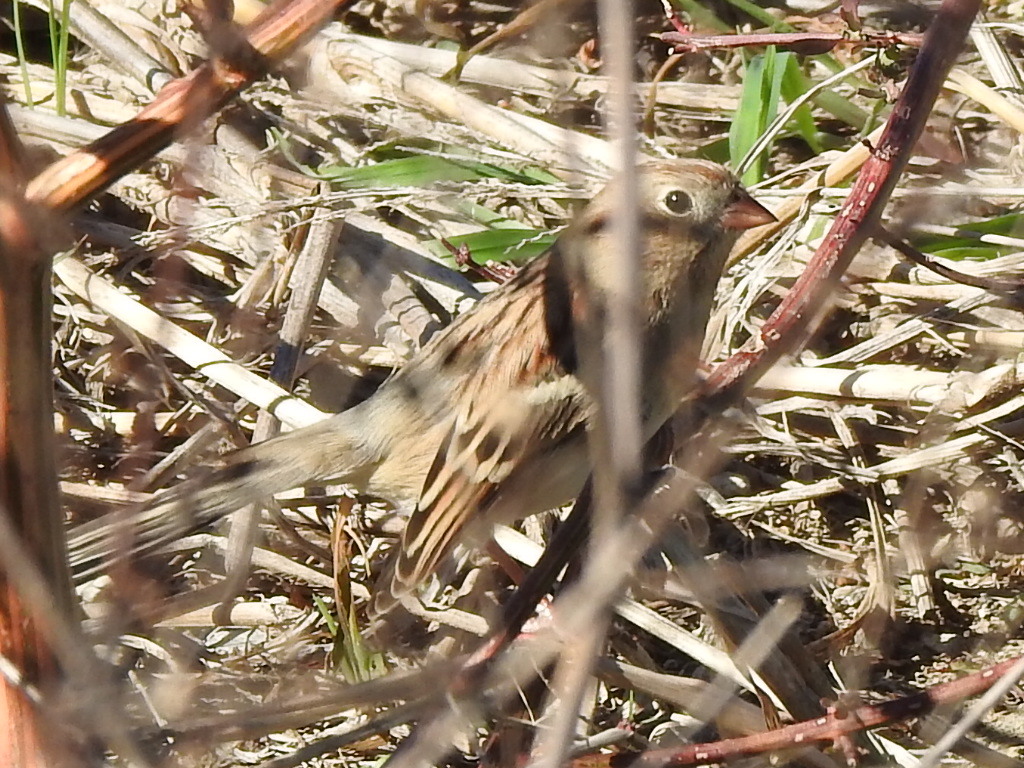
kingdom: Animalia
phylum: Chordata
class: Aves
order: Passeriformes
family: Passerellidae
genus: Zonotrichia
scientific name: Zonotrichia leucophrys
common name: White-crowned sparrow
